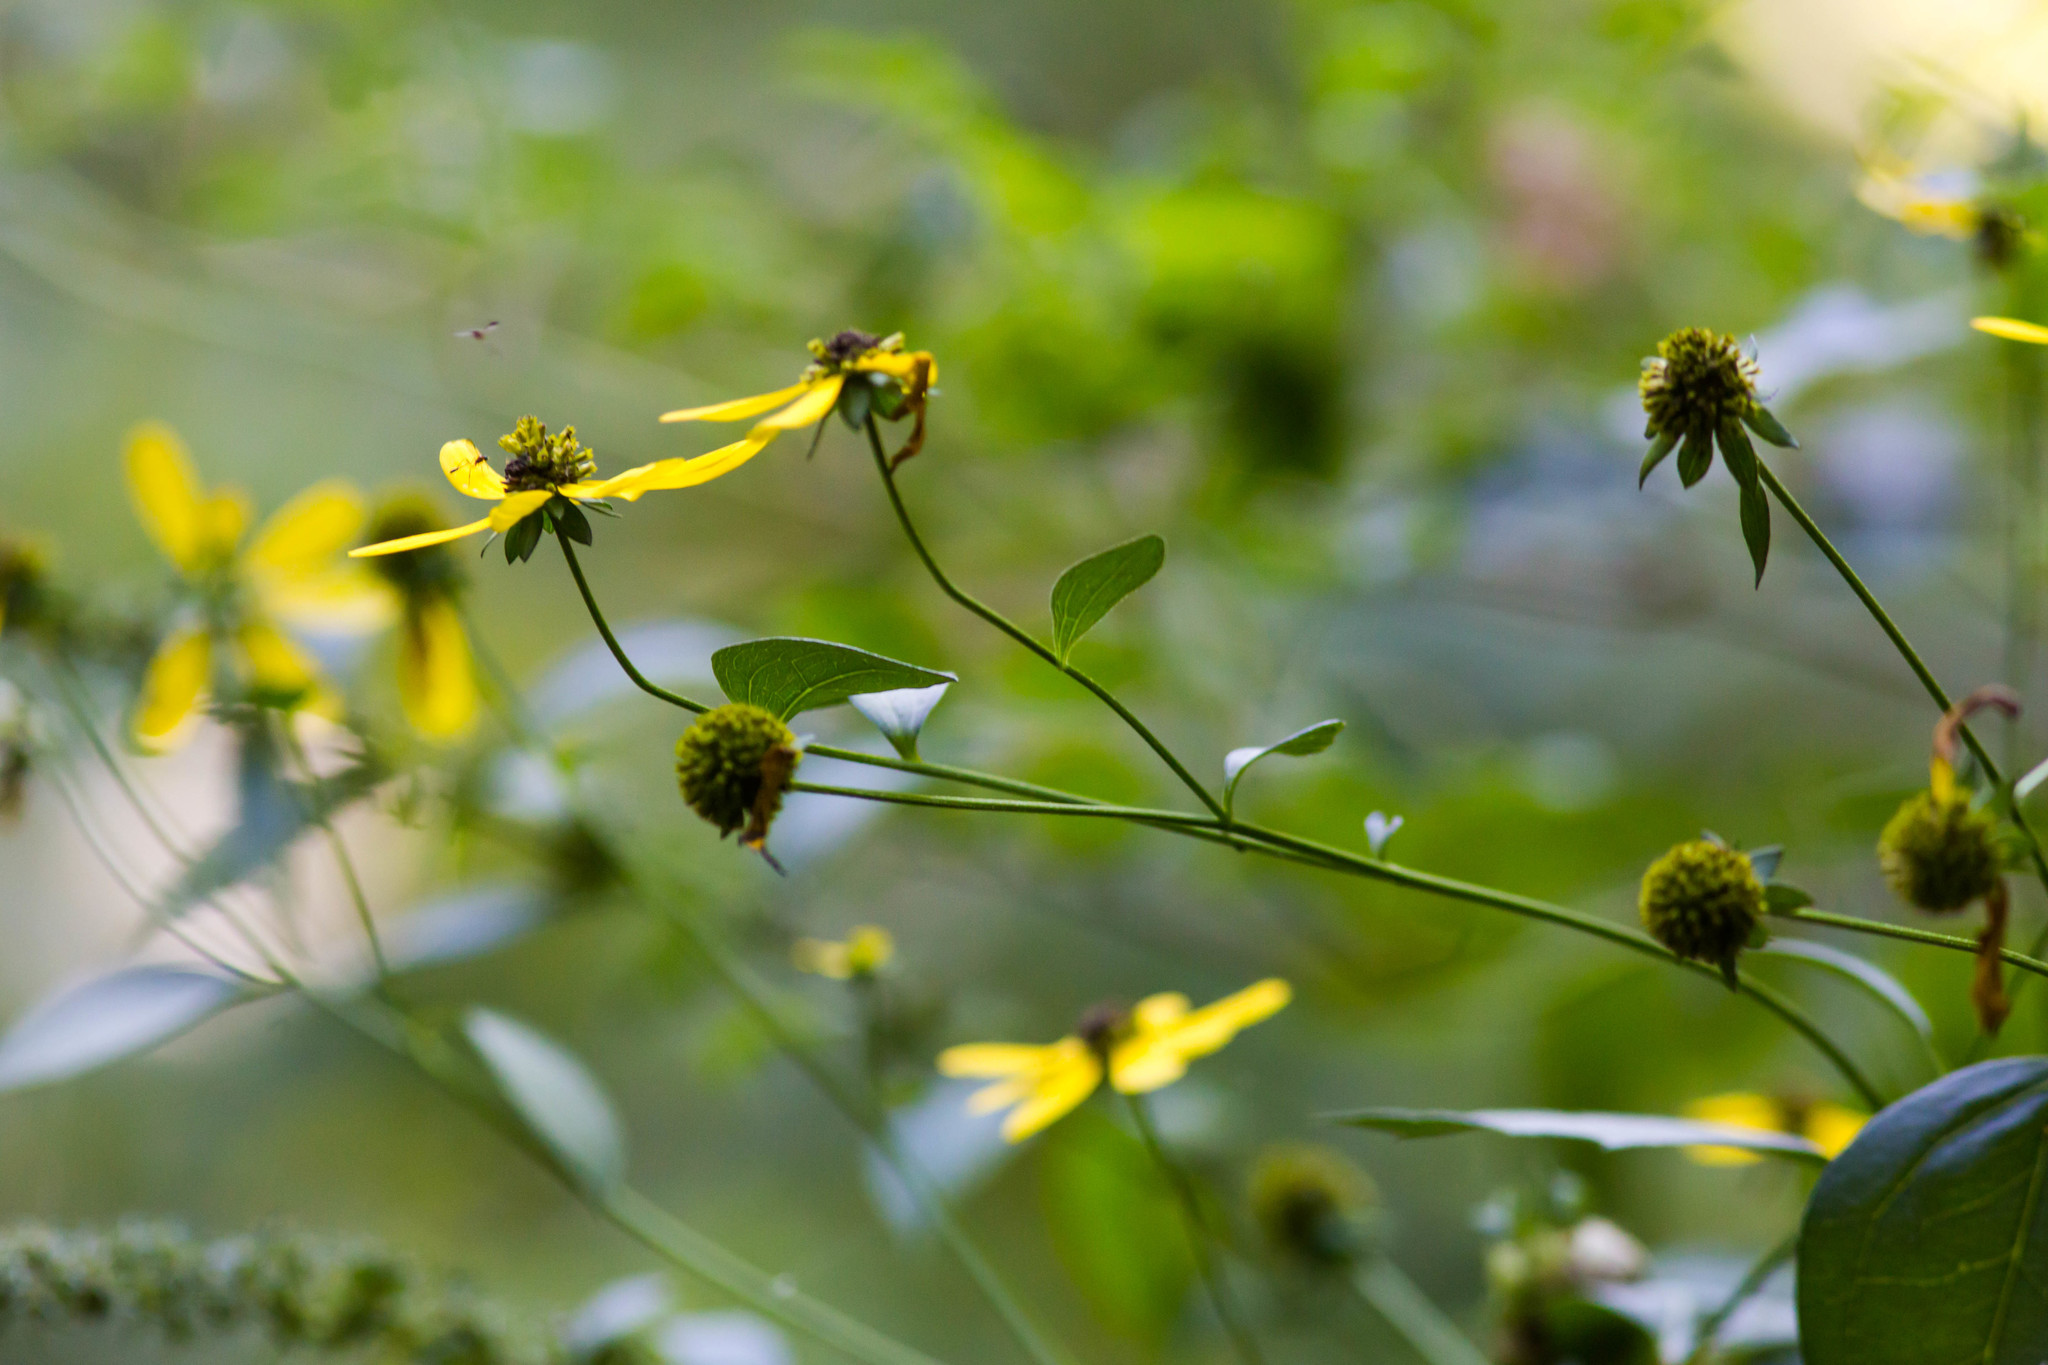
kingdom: Plantae
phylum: Tracheophyta
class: Magnoliopsida
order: Asterales
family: Asteraceae
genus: Rudbeckia
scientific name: Rudbeckia laciniata
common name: Coneflower
